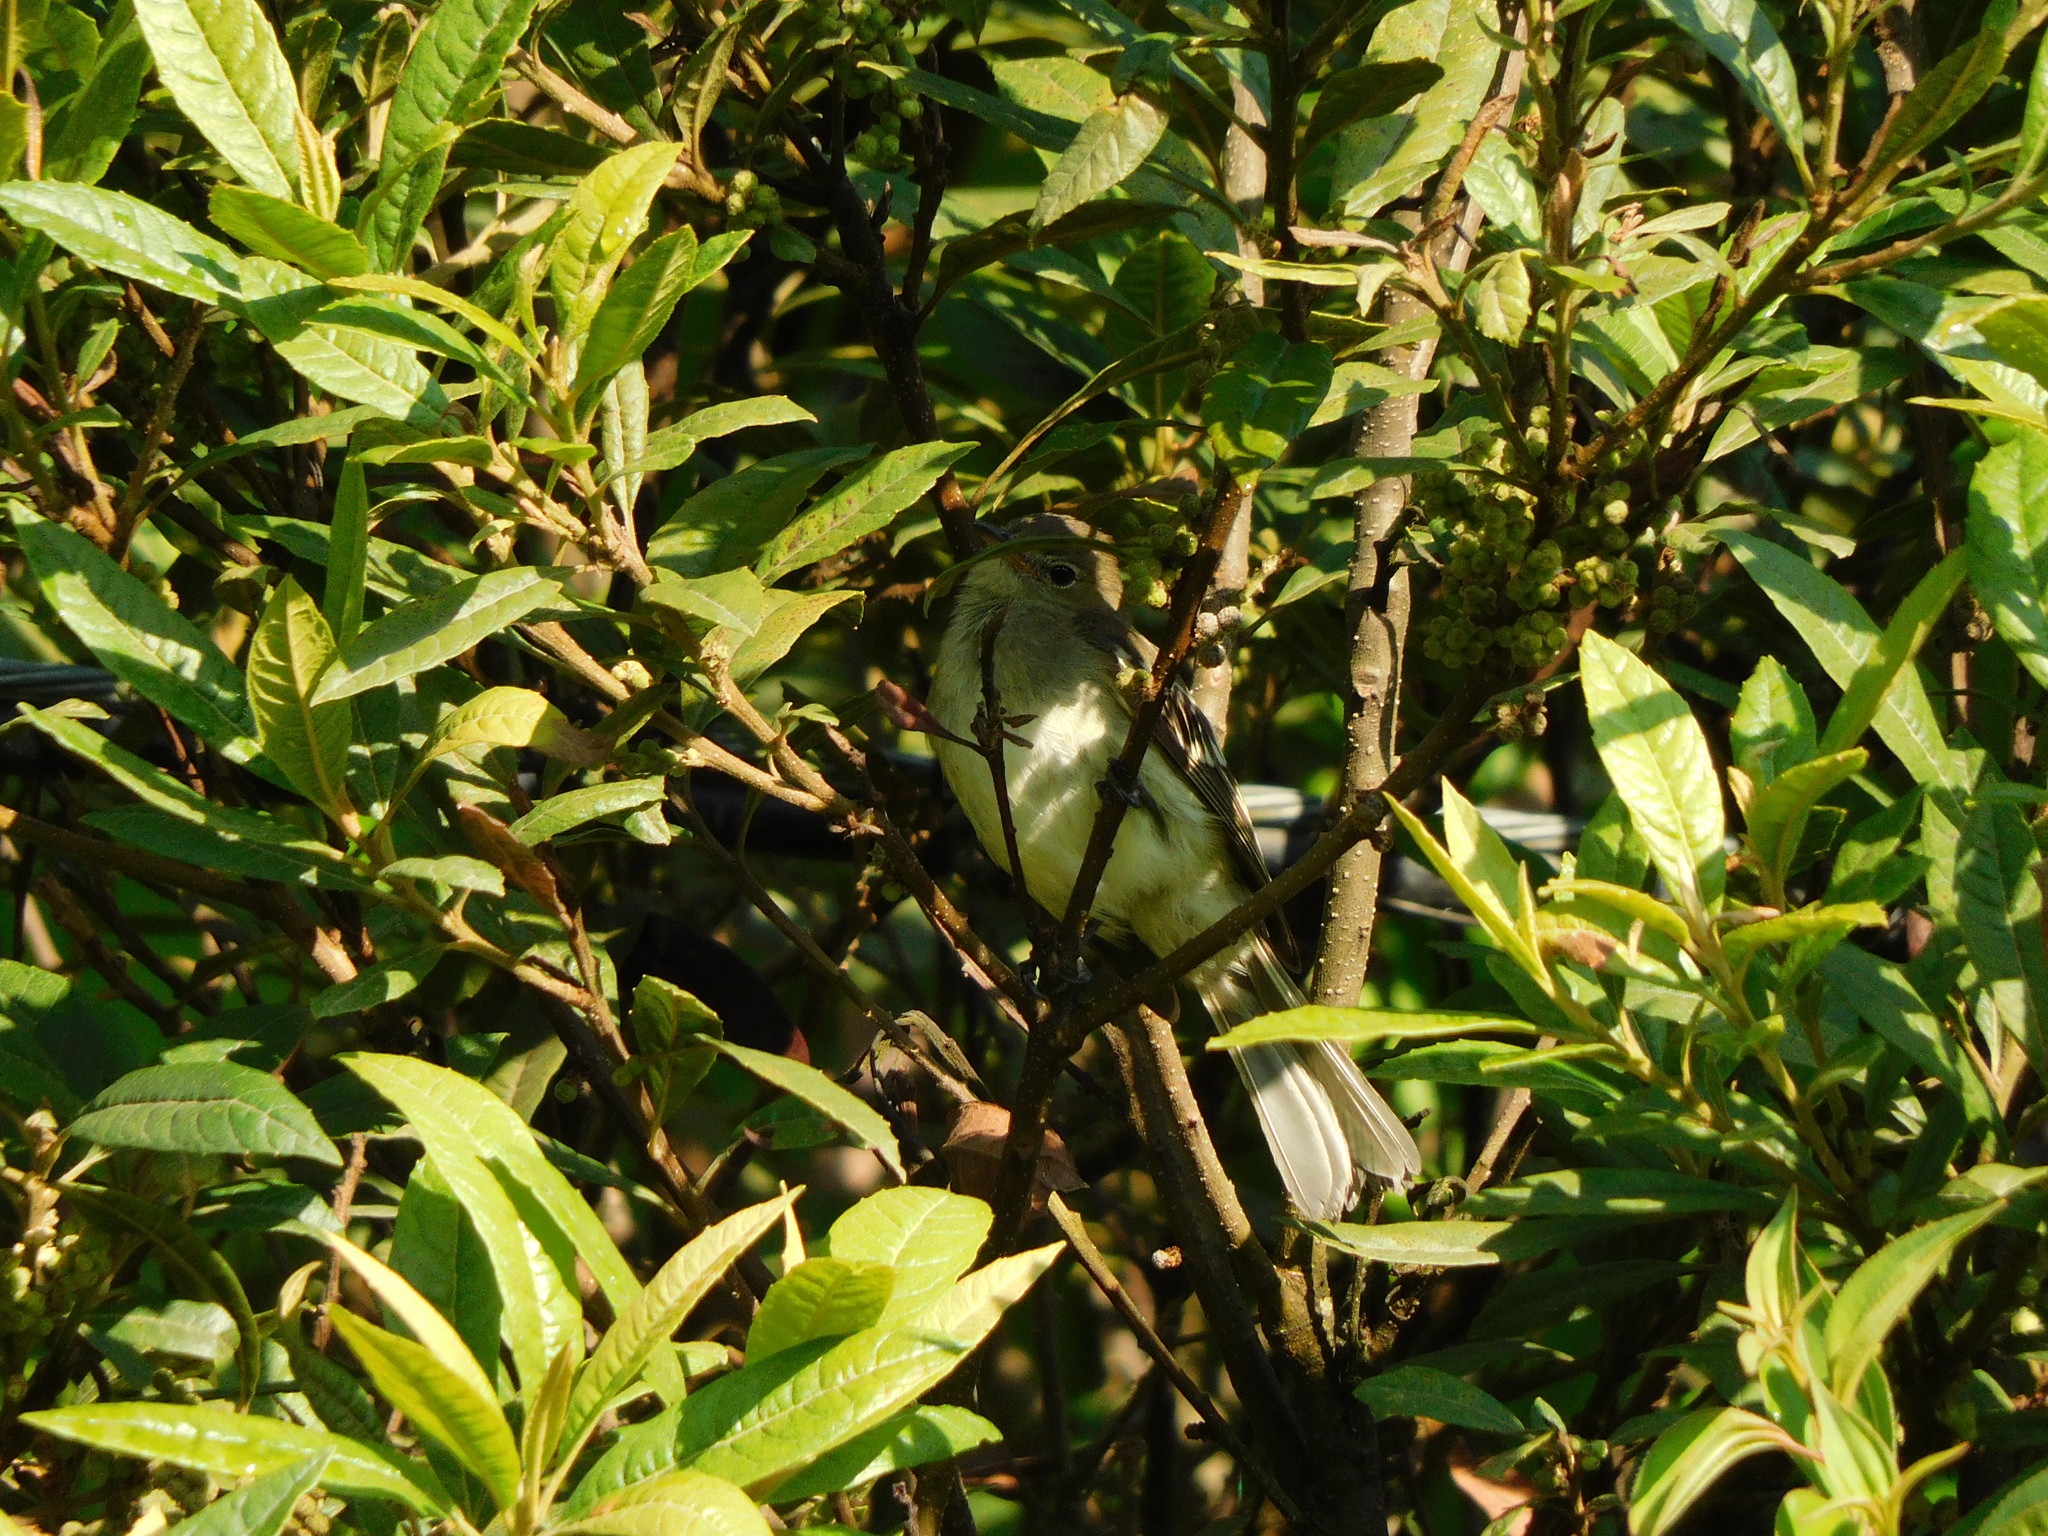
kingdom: Animalia
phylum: Chordata
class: Aves
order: Passeriformes
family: Tyrannidae
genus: Elaenia
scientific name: Elaenia frantzii
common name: Mountain elaenia
